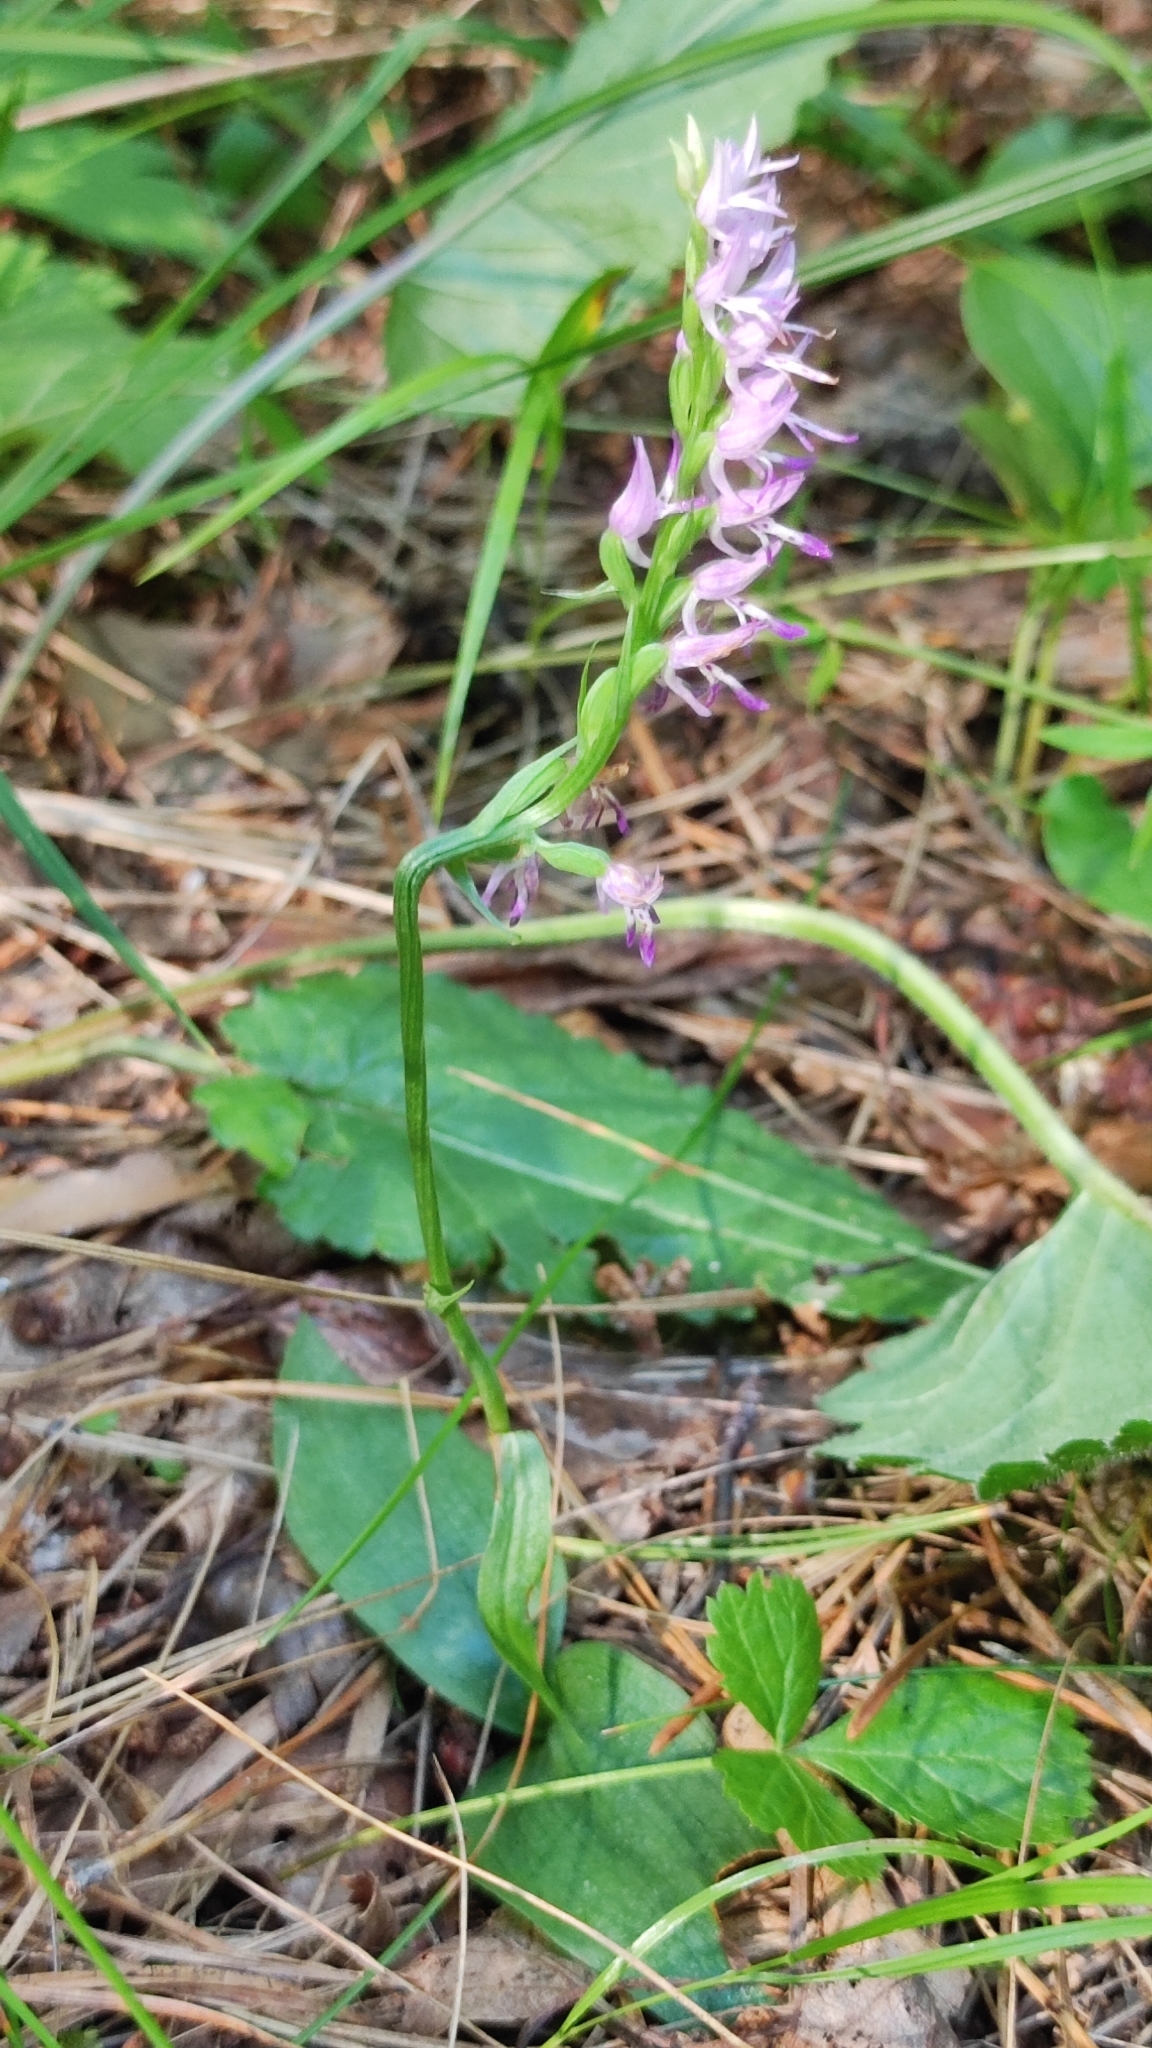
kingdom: Plantae
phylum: Tracheophyta
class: Liliopsida
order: Asparagales
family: Orchidaceae
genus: Hemipilia
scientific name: Hemipilia cucullata
